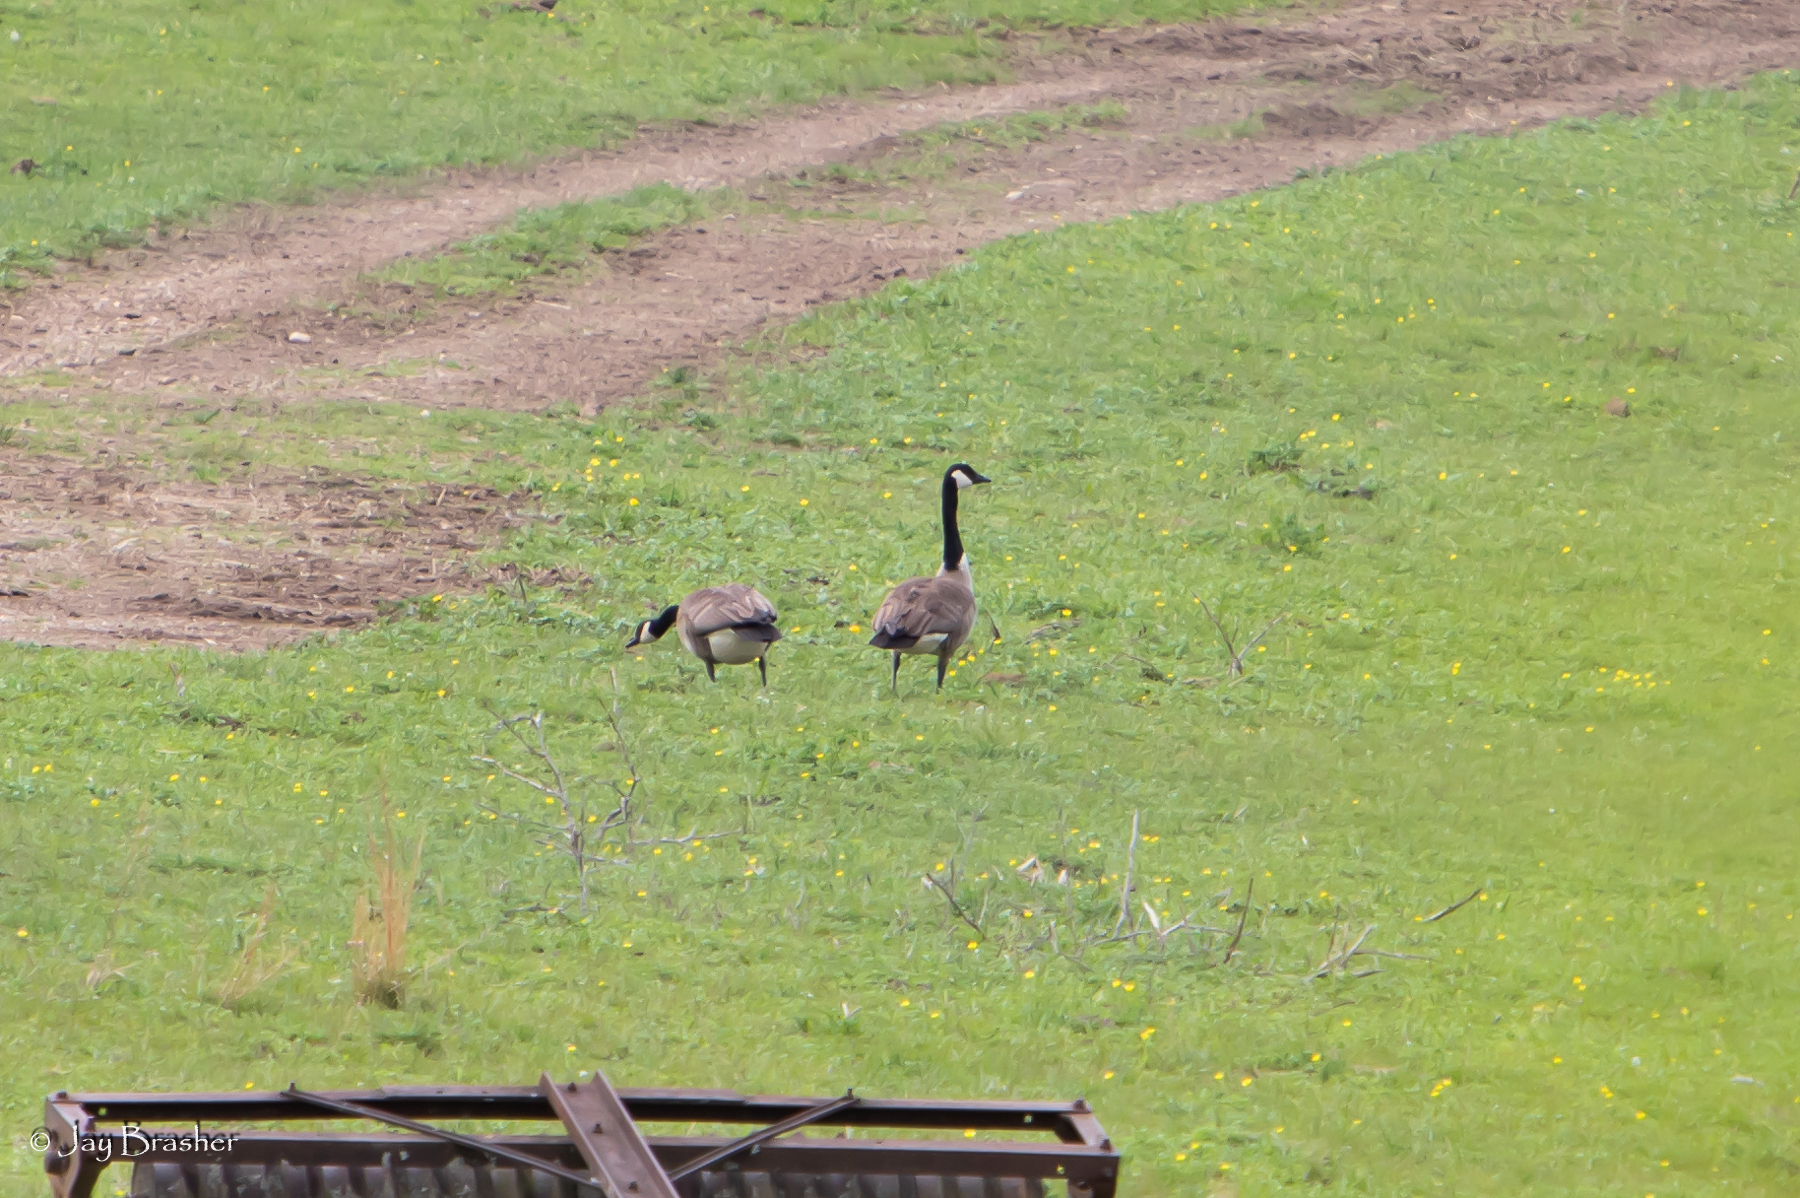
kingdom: Animalia
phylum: Chordata
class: Aves
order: Anseriformes
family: Anatidae
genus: Branta
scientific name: Branta canadensis
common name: Canada goose
